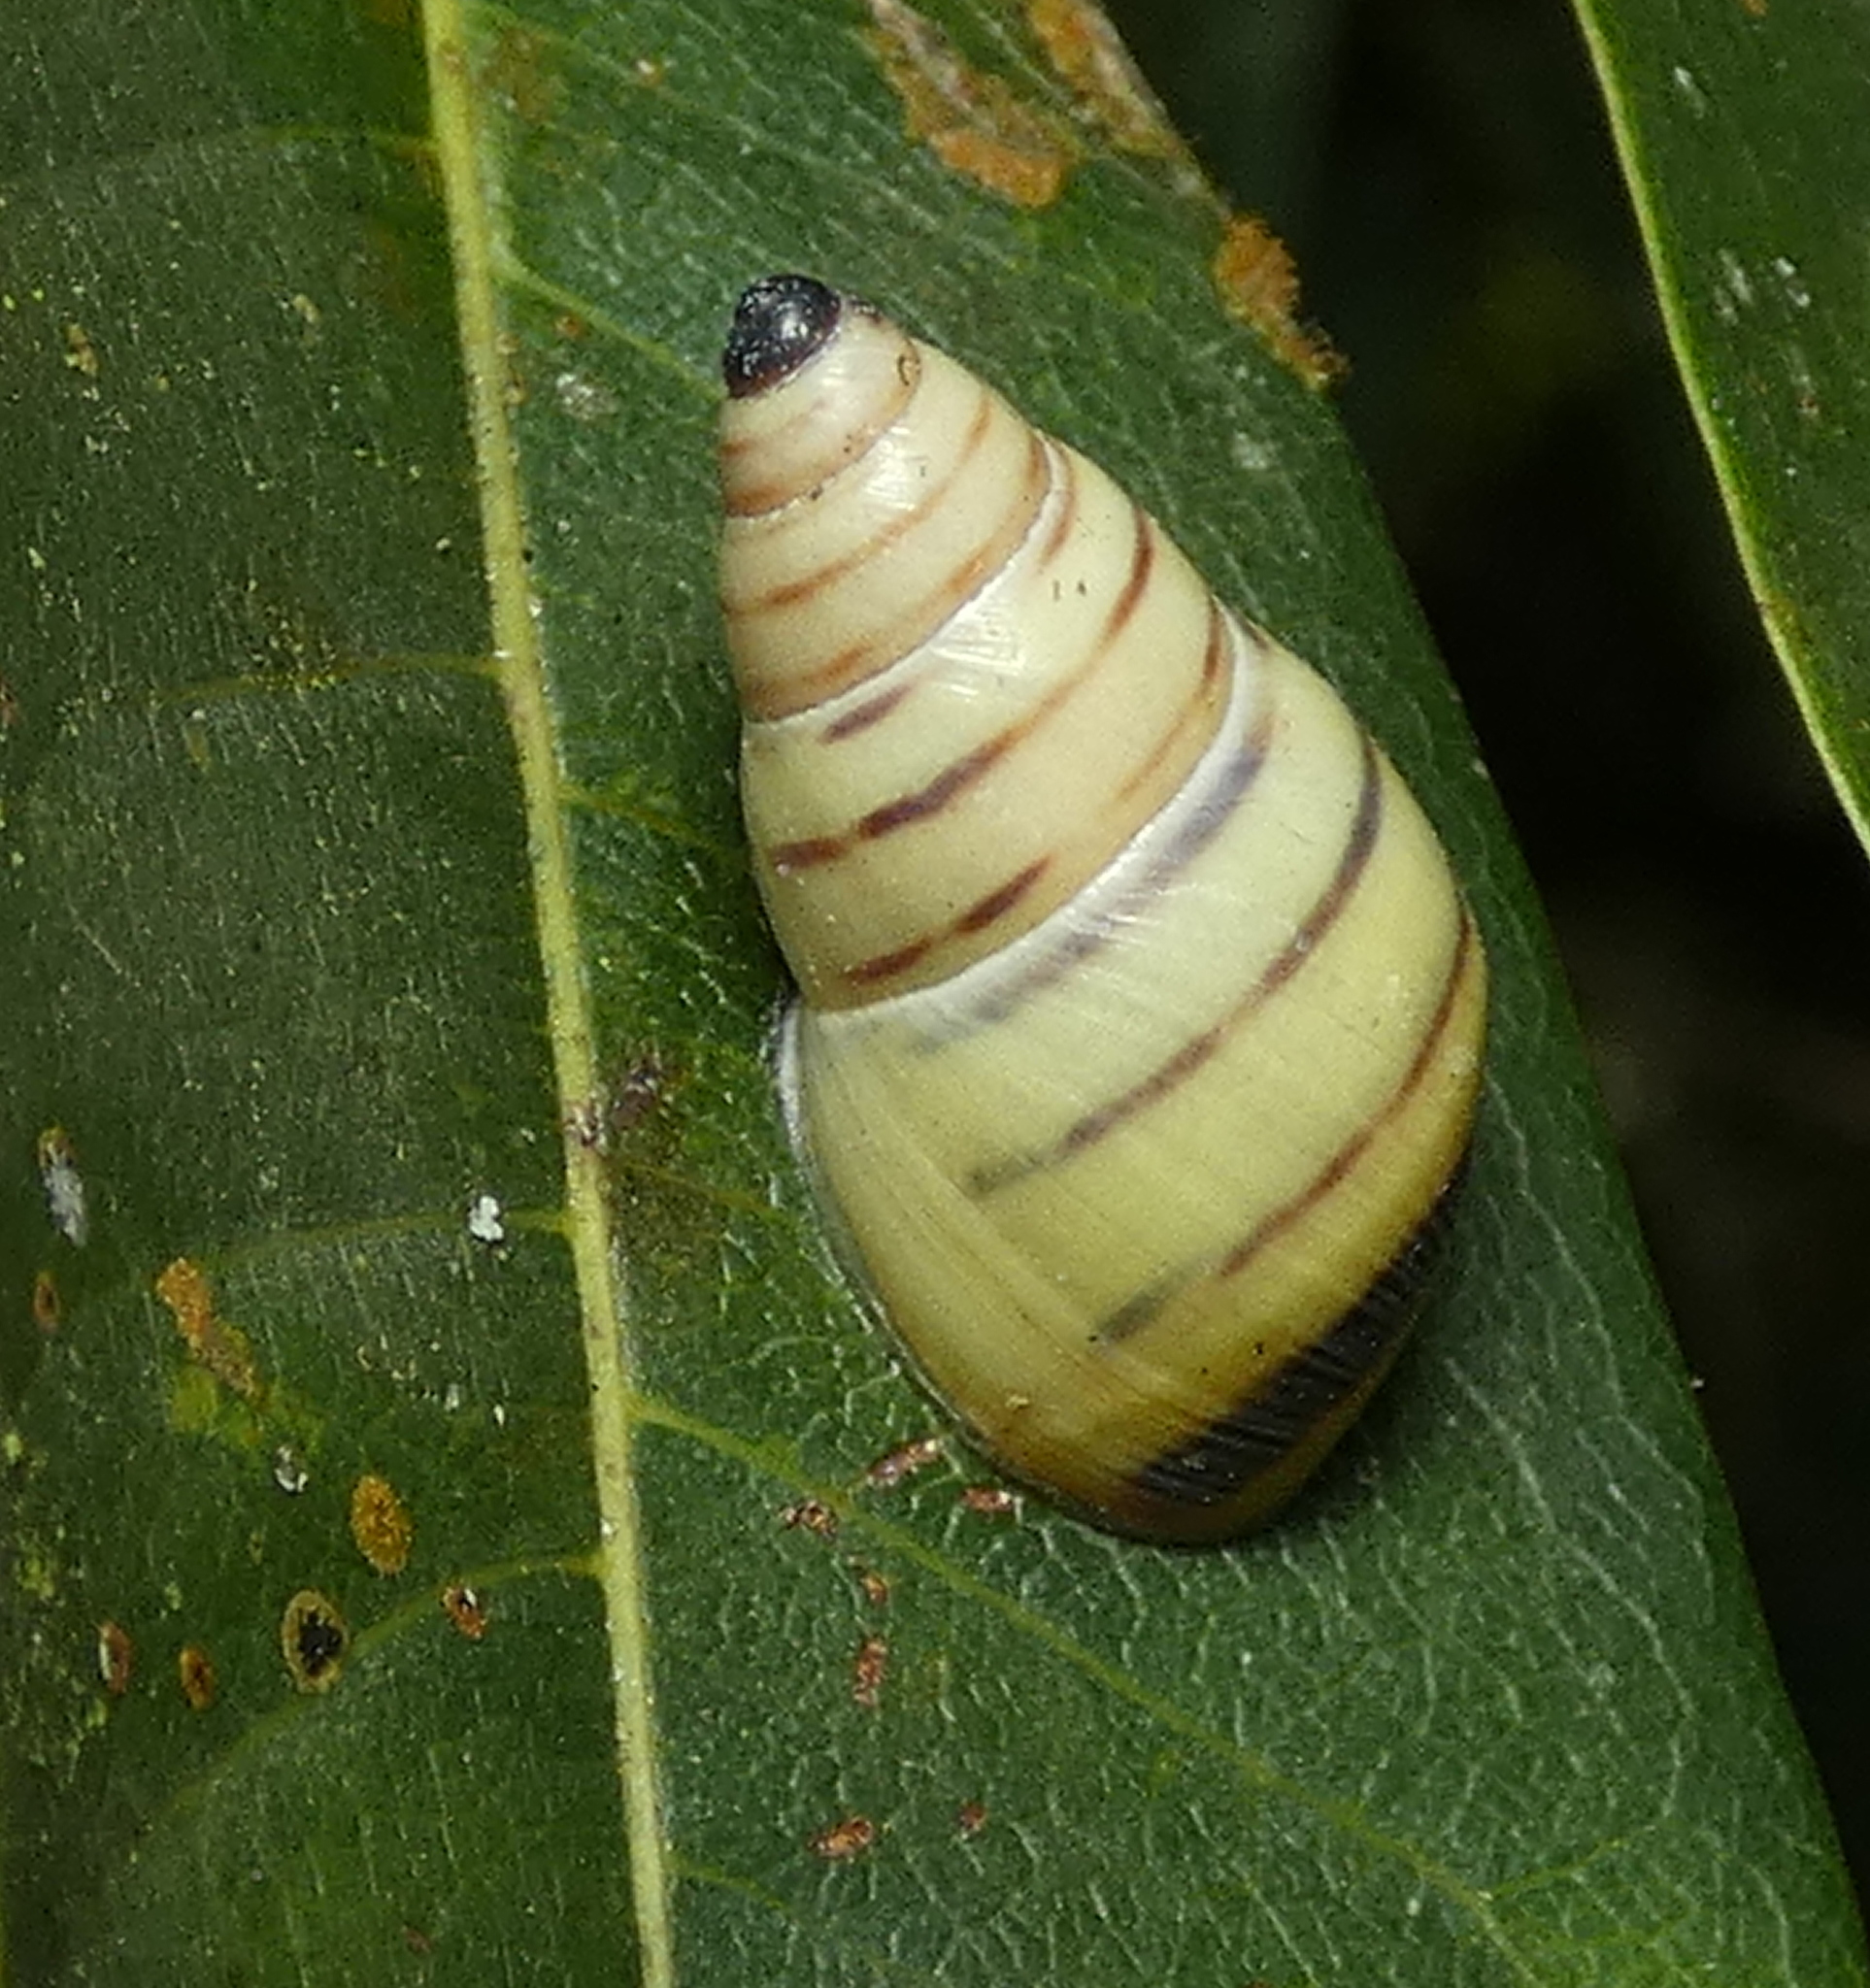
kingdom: Animalia
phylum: Mollusca
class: Gastropoda
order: Stylommatophora
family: Bulimulidae
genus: Drymaeus
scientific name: Drymaeus
